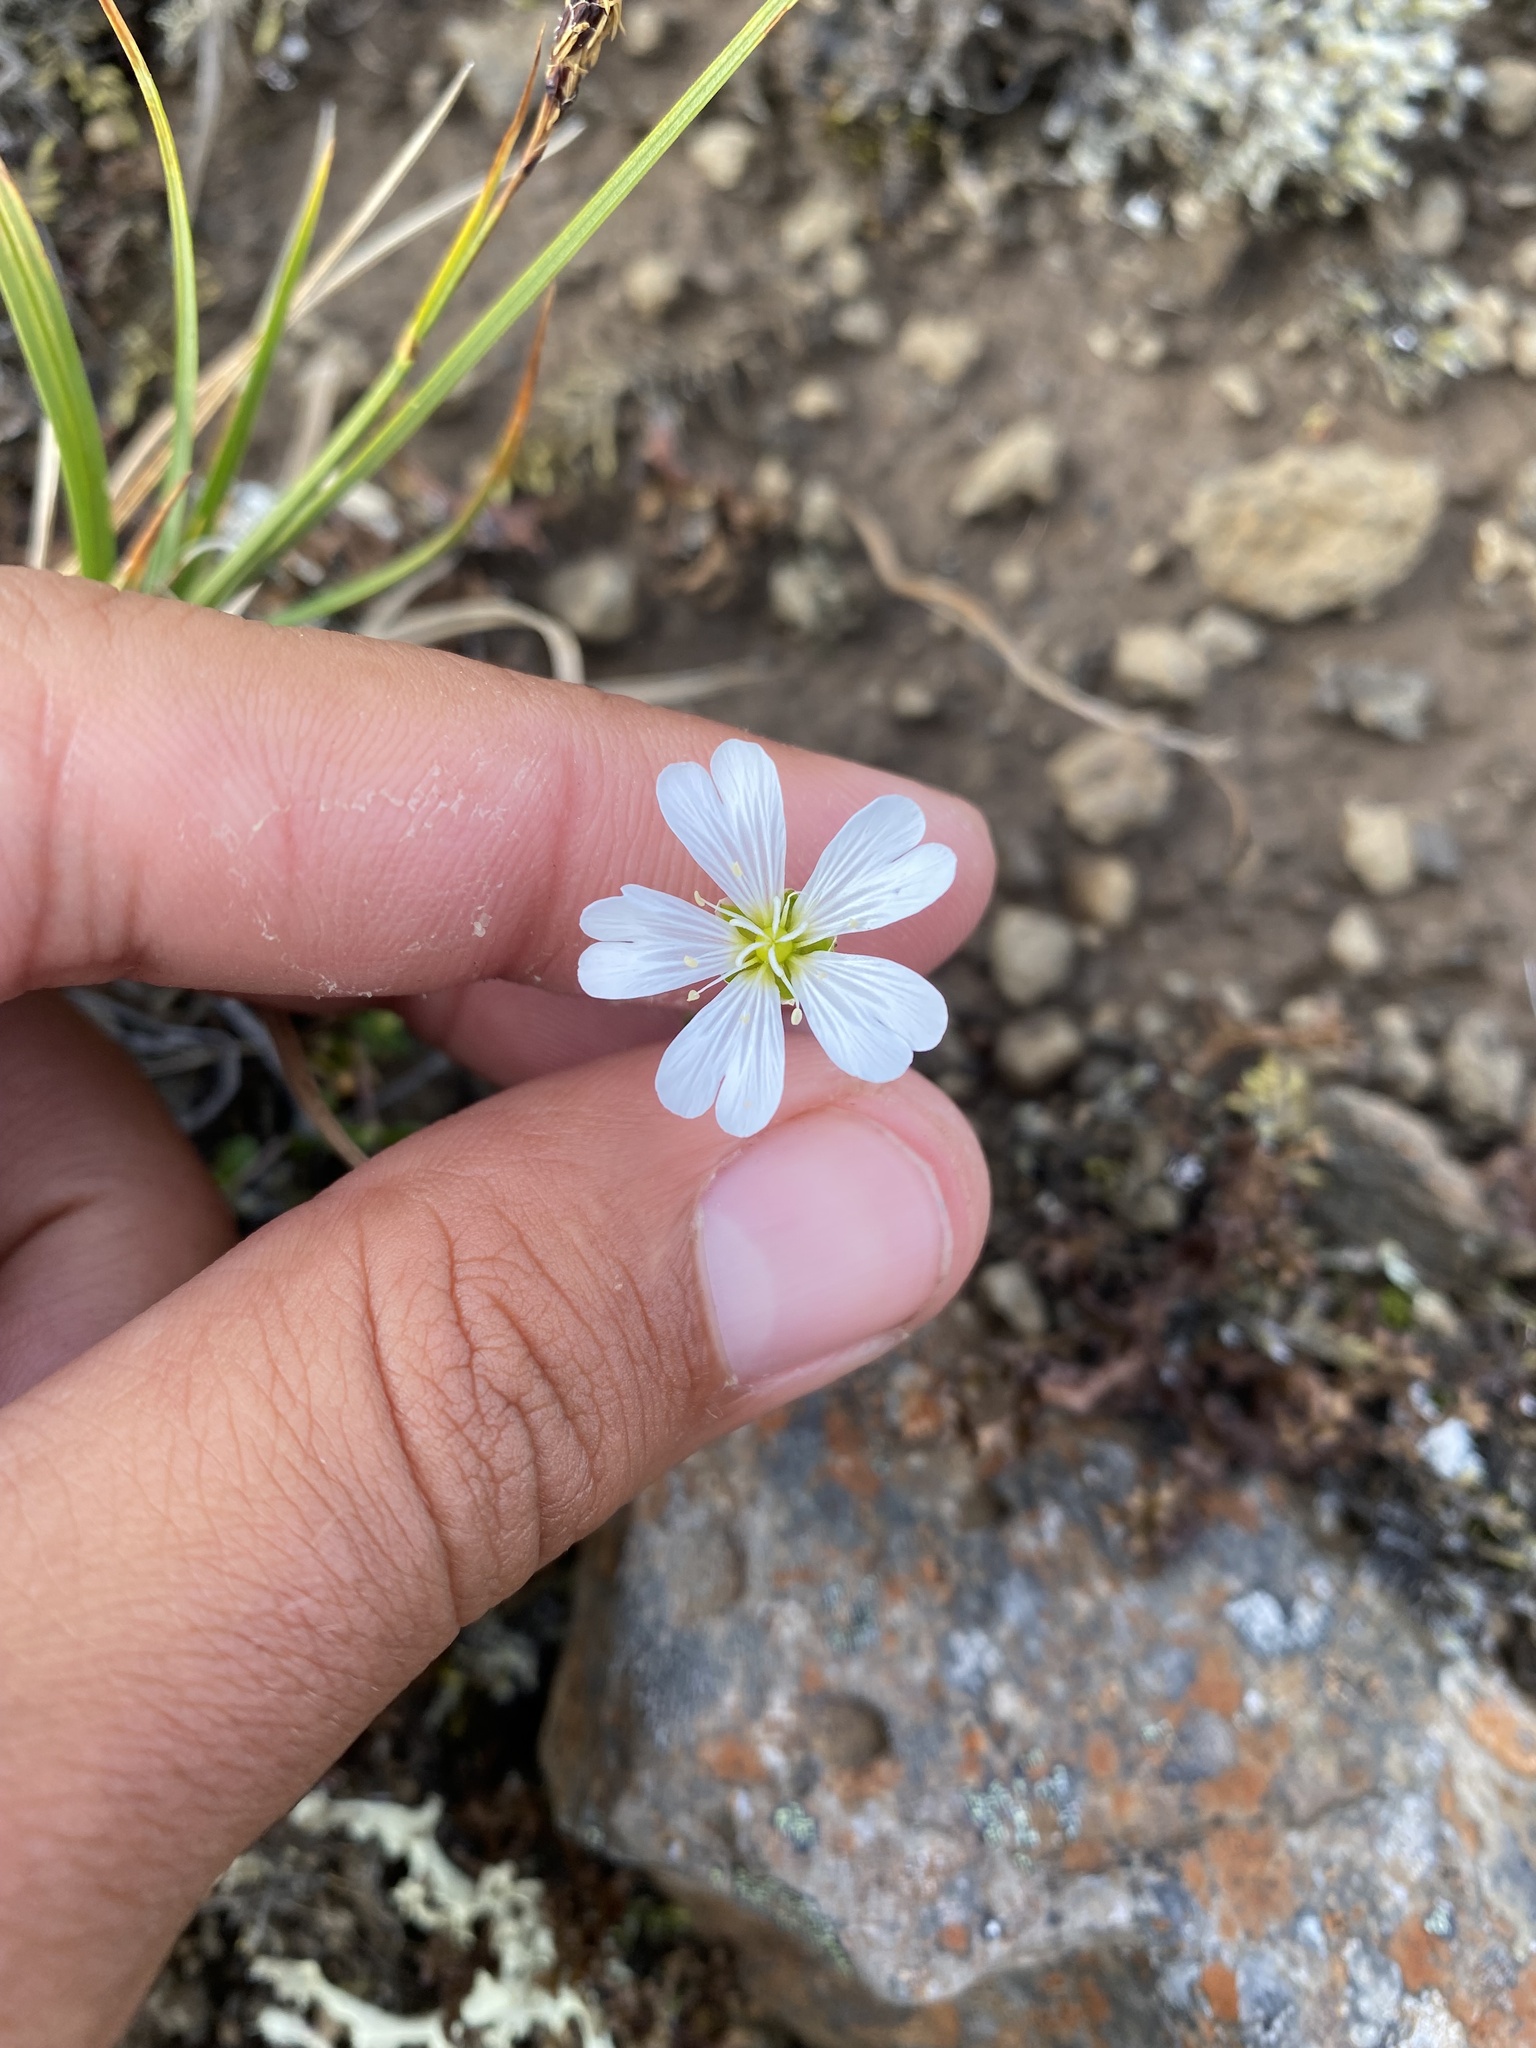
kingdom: Plantae
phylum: Tracheophyta
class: Magnoliopsida
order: Caryophyllales
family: Caryophyllaceae
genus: Cerastium
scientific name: Cerastium regelii
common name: Regel's chickweed
